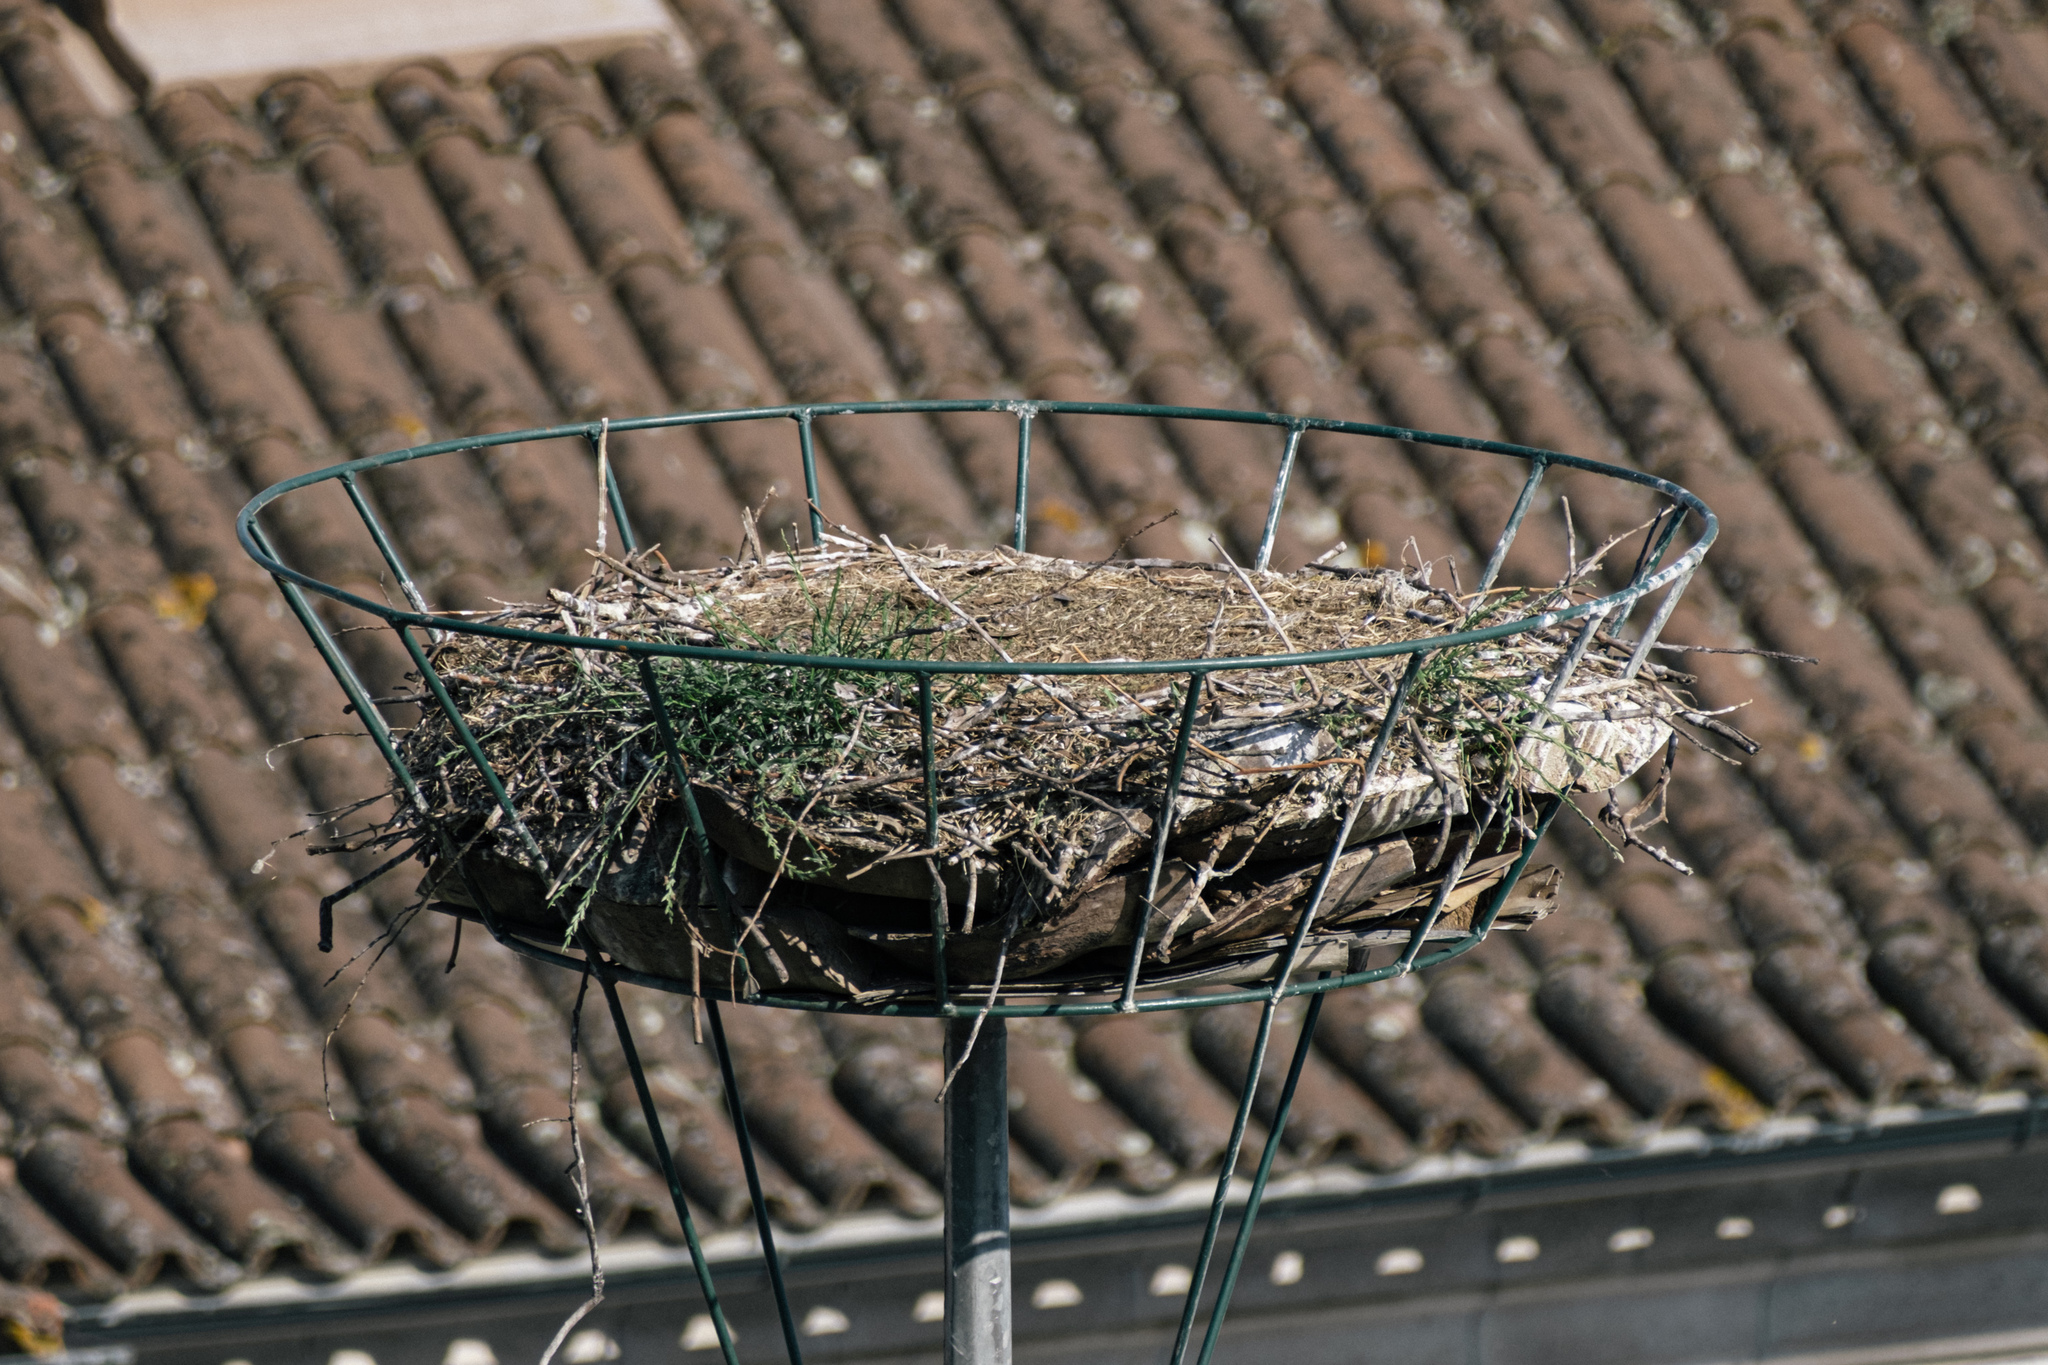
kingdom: Animalia
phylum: Chordata
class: Aves
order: Ciconiiformes
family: Ciconiidae
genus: Ciconia
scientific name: Ciconia ciconia
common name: White stork
